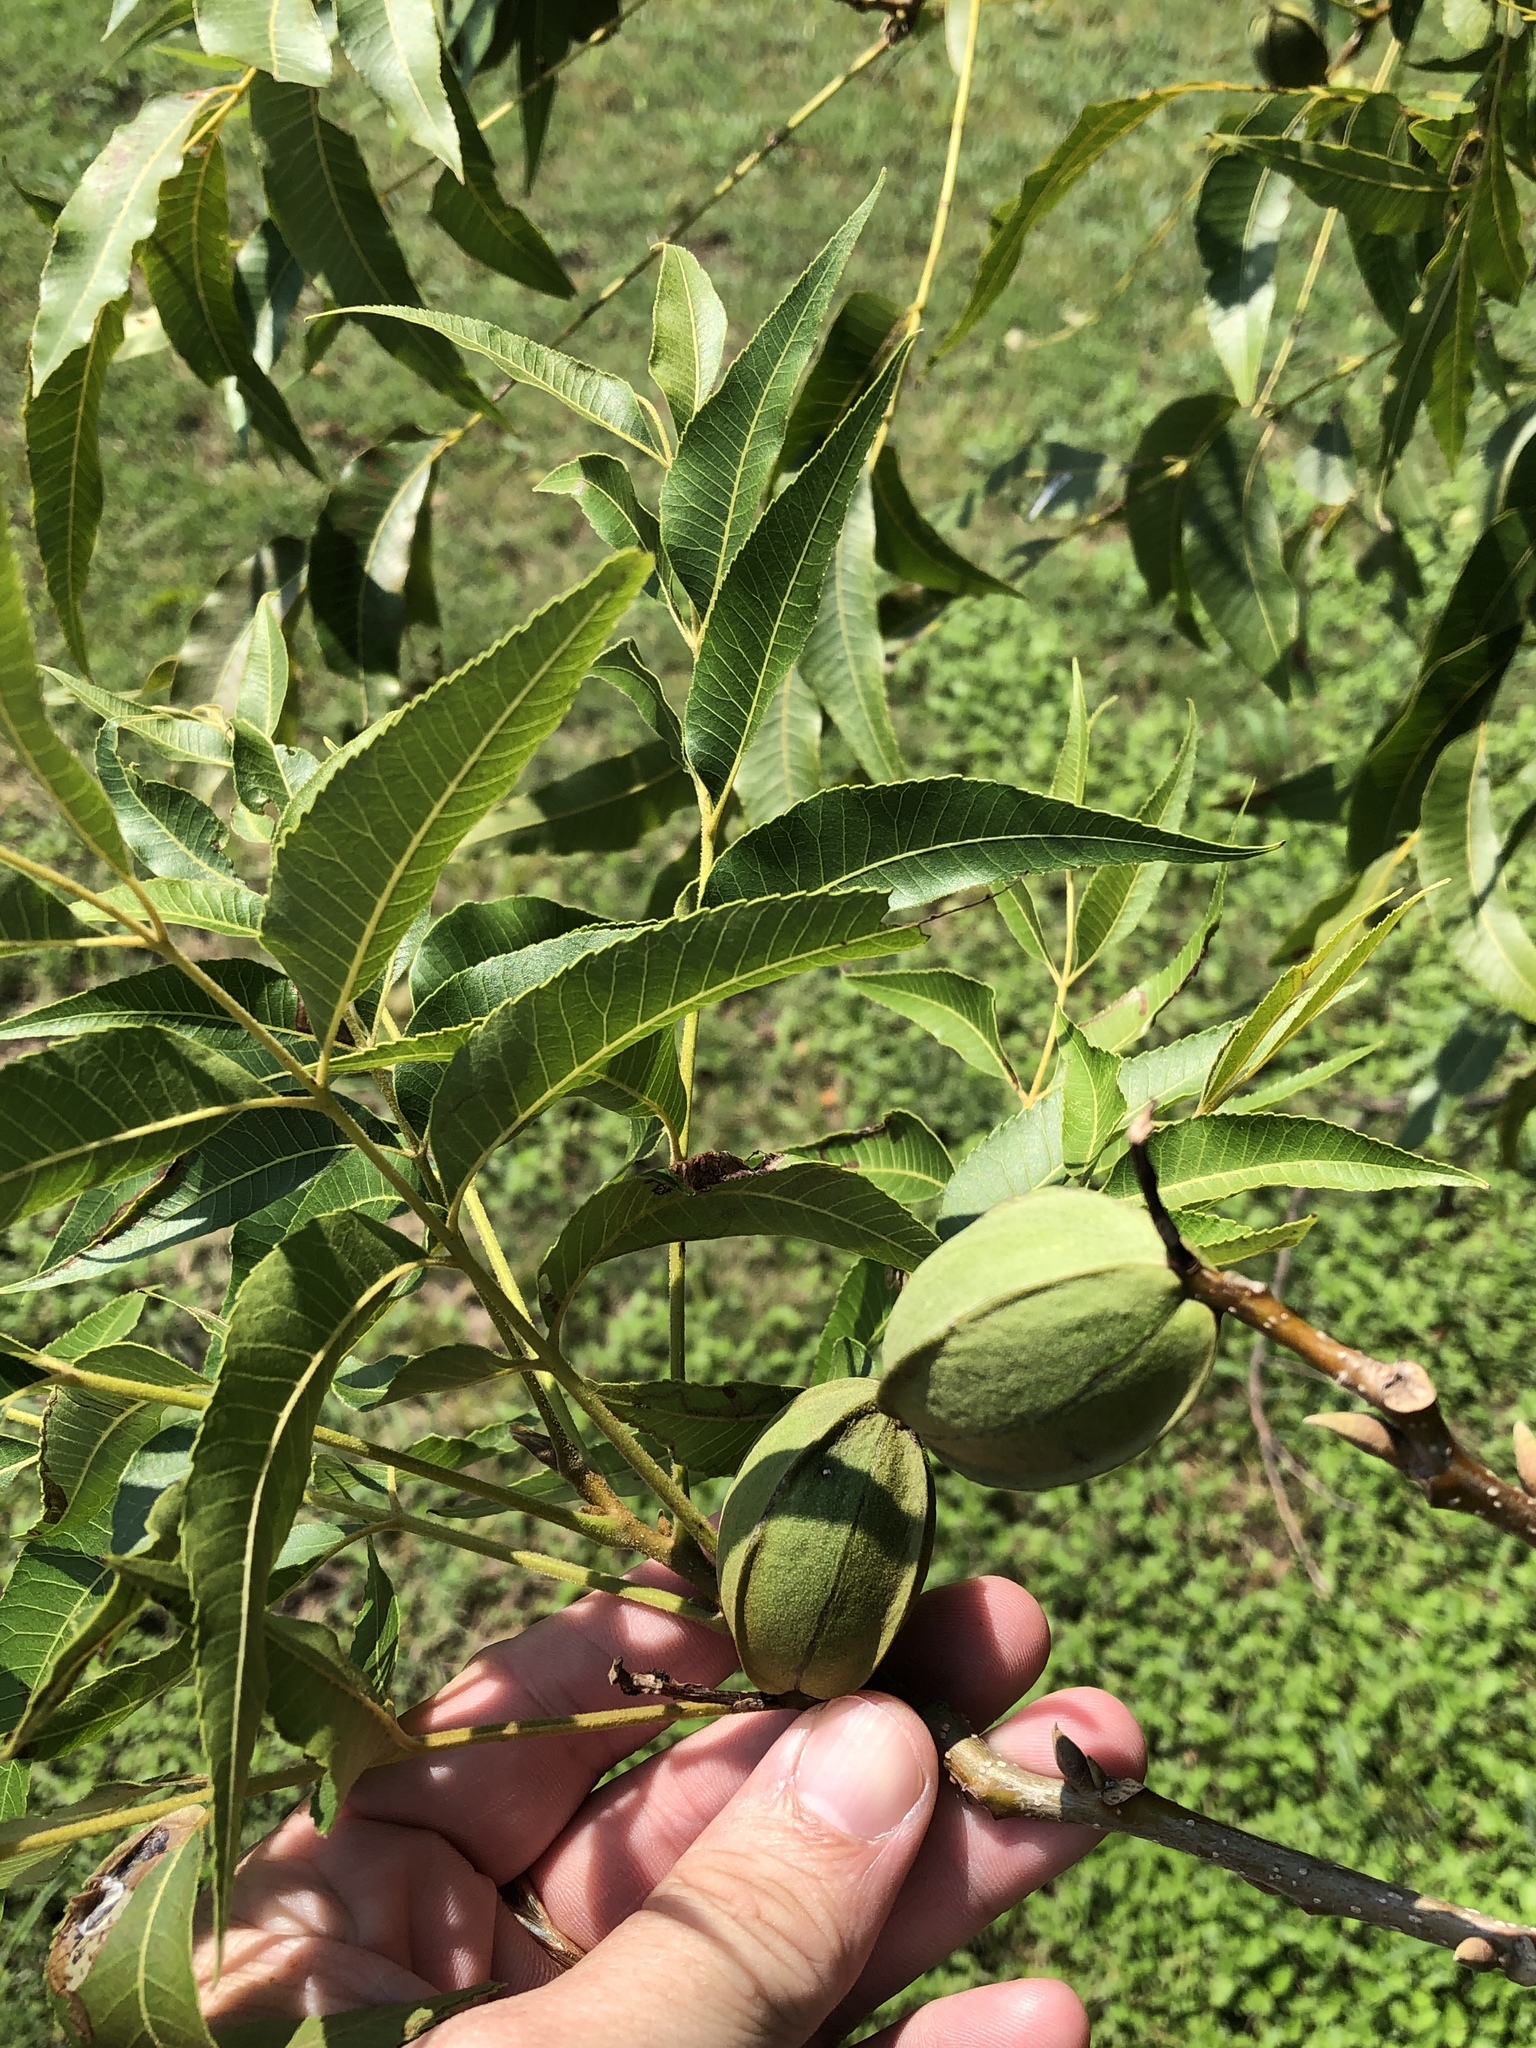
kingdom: Plantae
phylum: Tracheophyta
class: Magnoliopsida
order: Fagales
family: Juglandaceae
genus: Carya
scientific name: Carya illinoinensis
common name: Pecan
